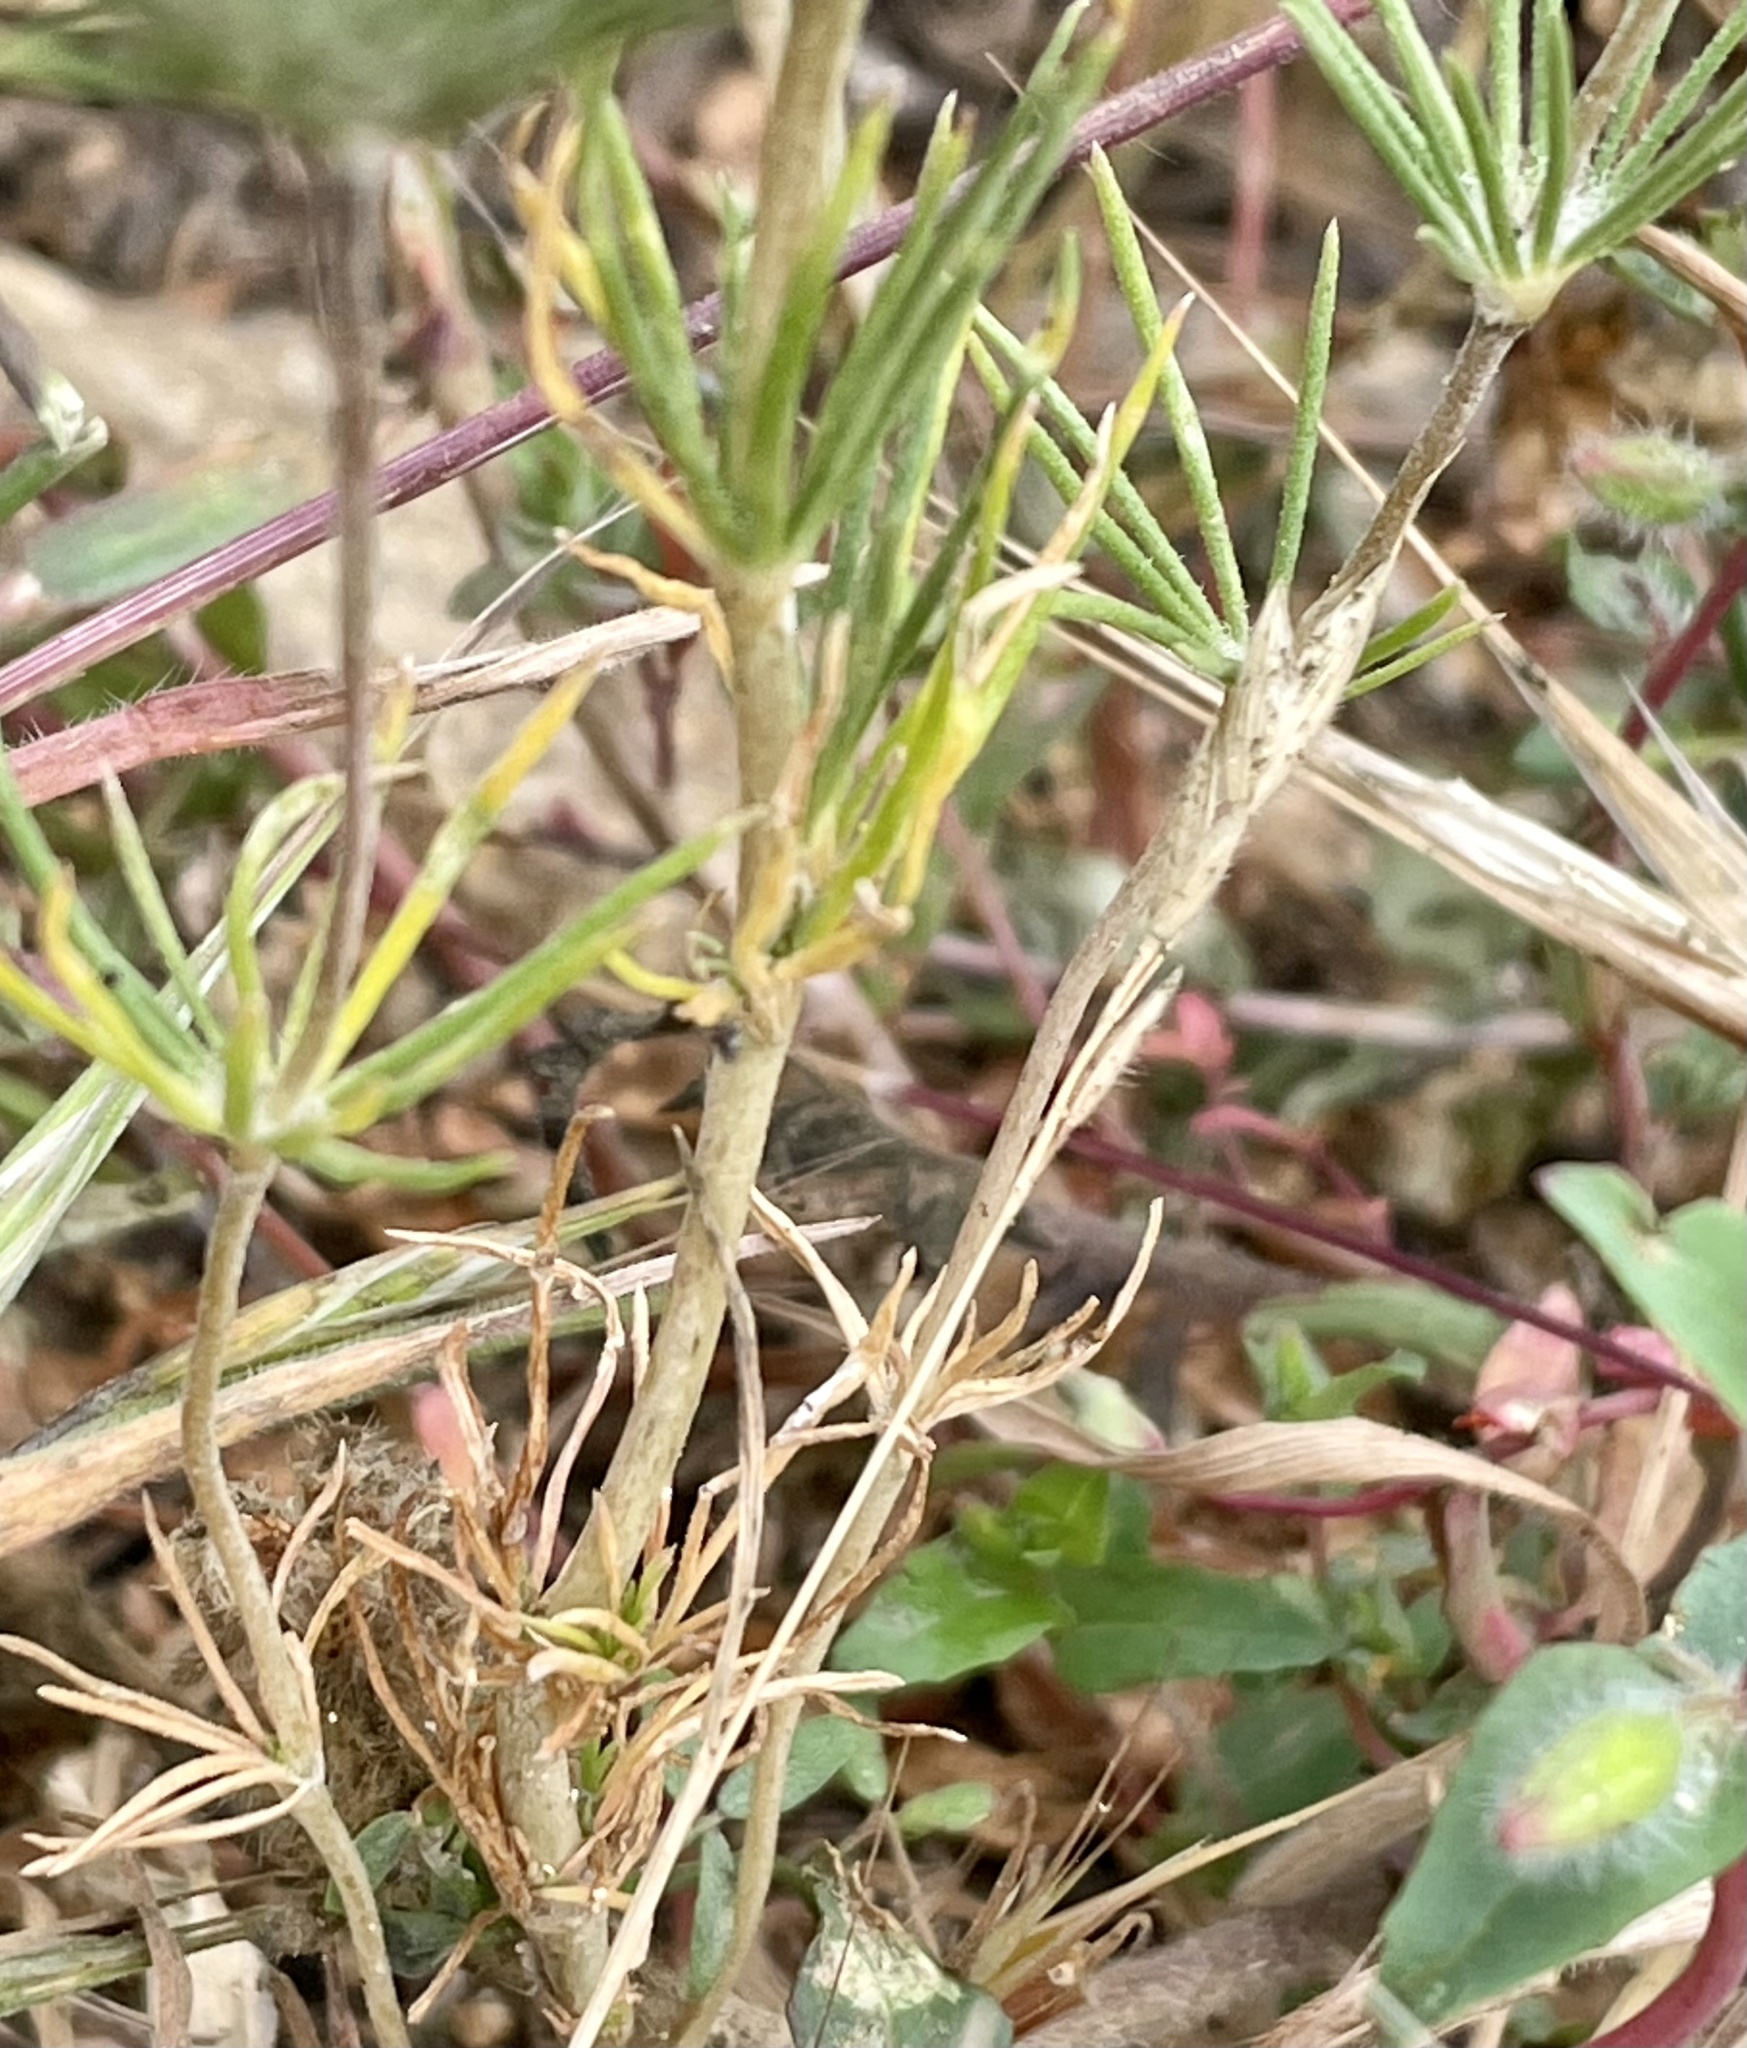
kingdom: Plantae
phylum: Tracheophyta
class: Magnoliopsida
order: Ericales
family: Polemoniaceae
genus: Leptosiphon
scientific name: Leptosiphon grandiflorus
